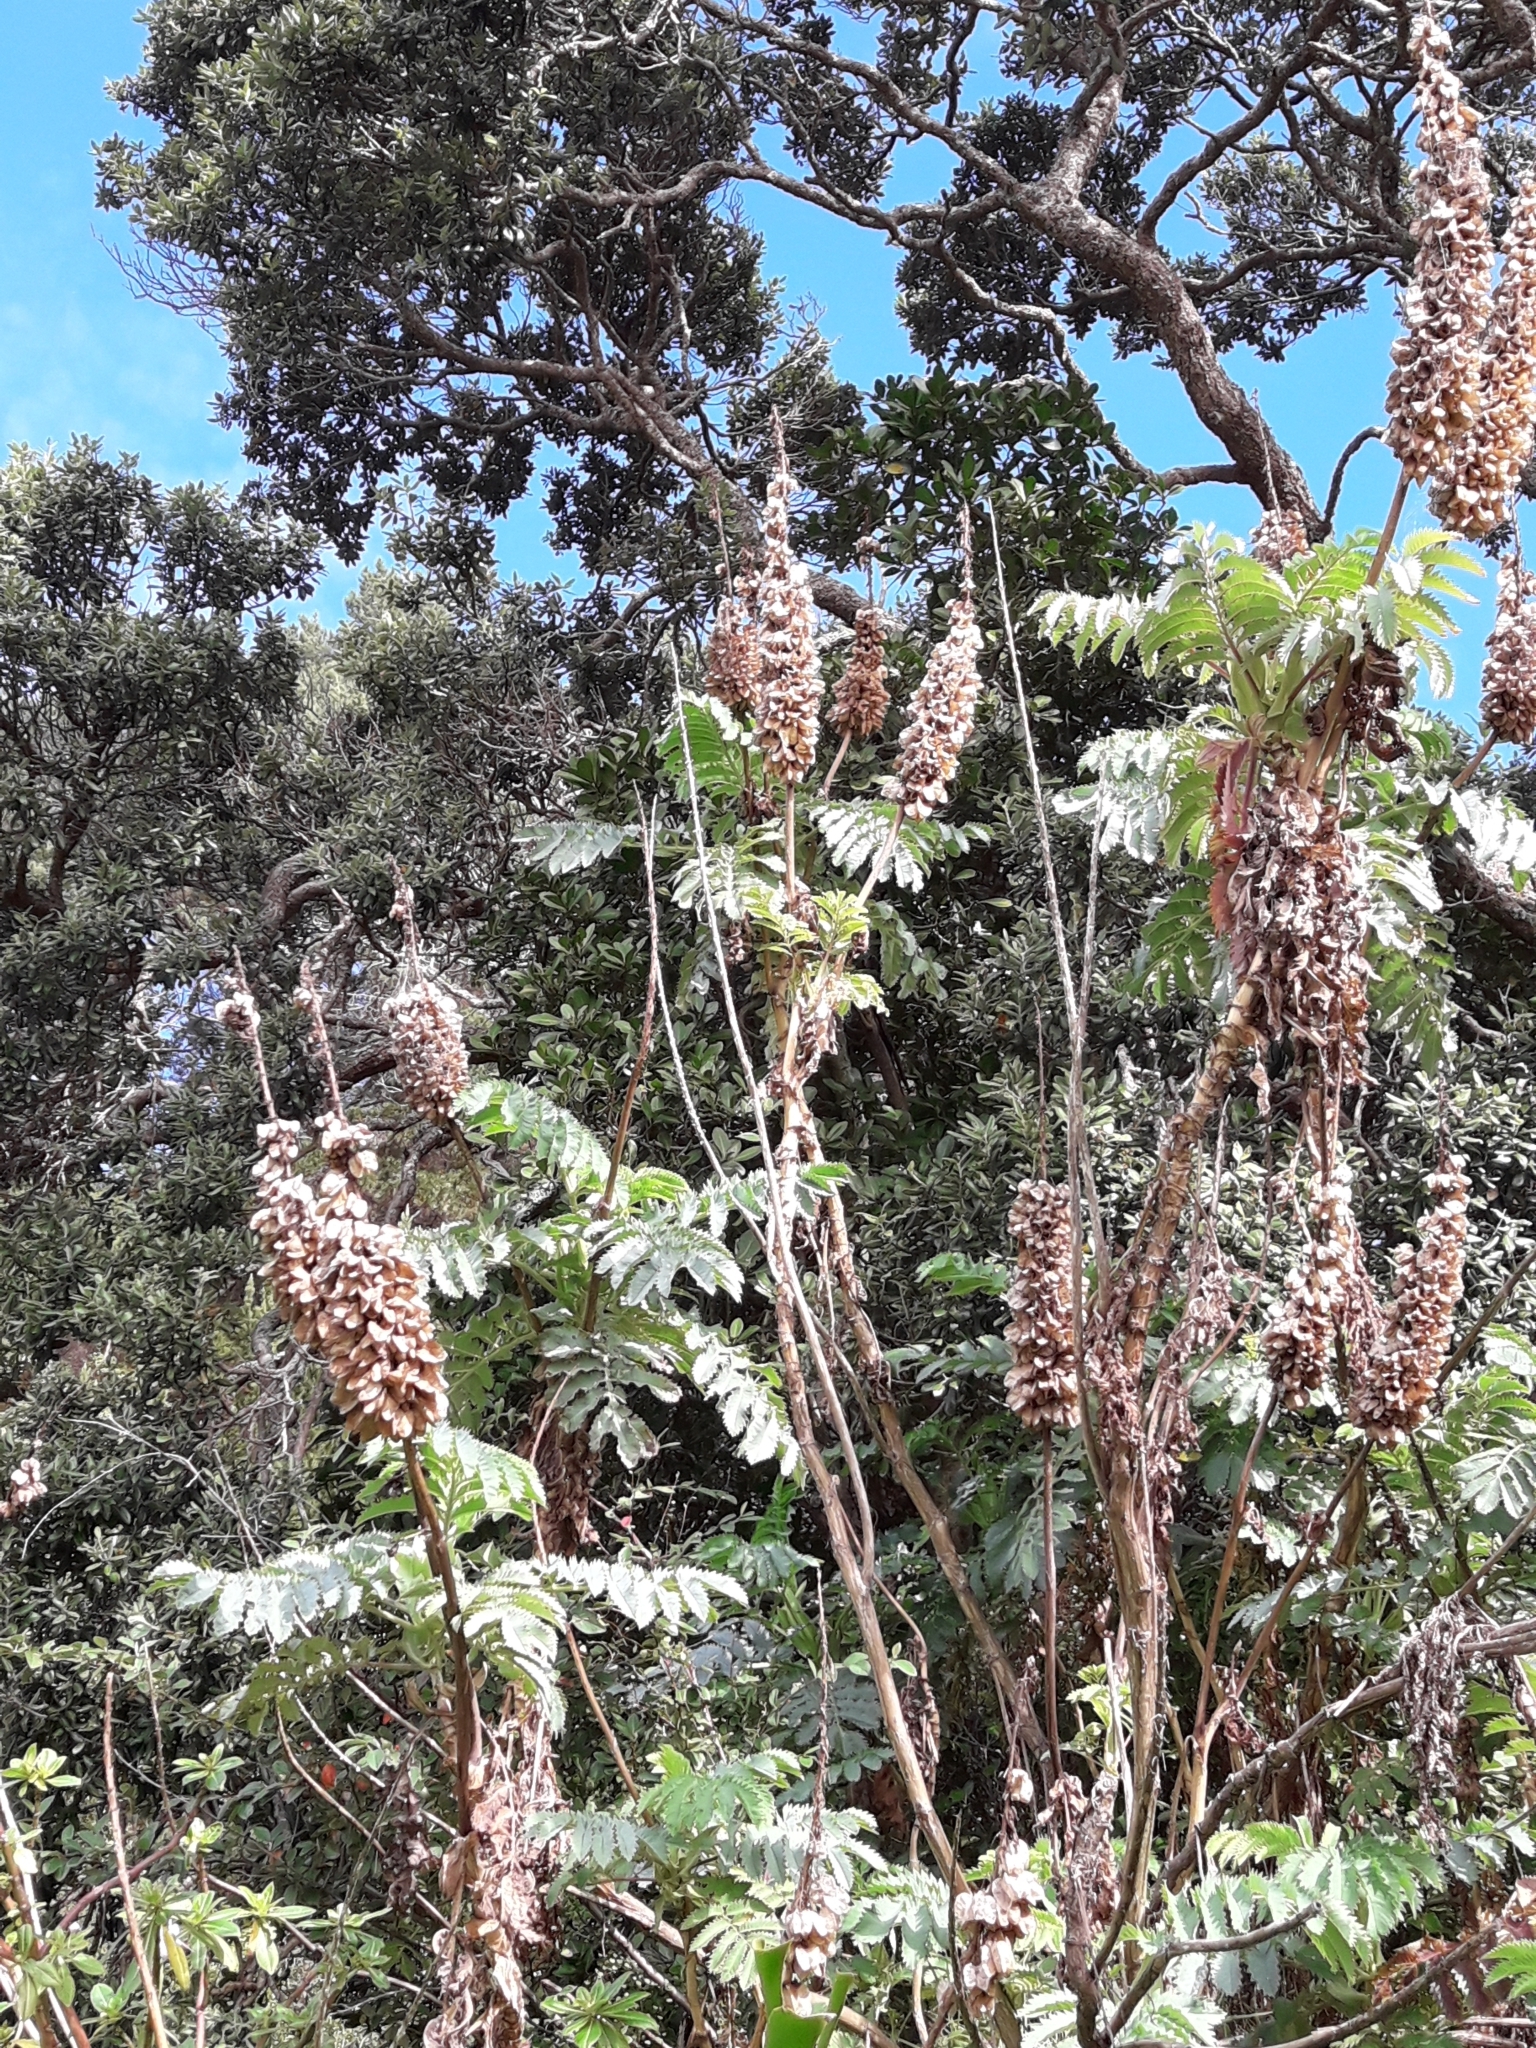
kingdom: Plantae
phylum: Tracheophyta
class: Magnoliopsida
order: Geraniales
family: Melianthaceae
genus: Melianthus
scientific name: Melianthus major
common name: Honey-flower
